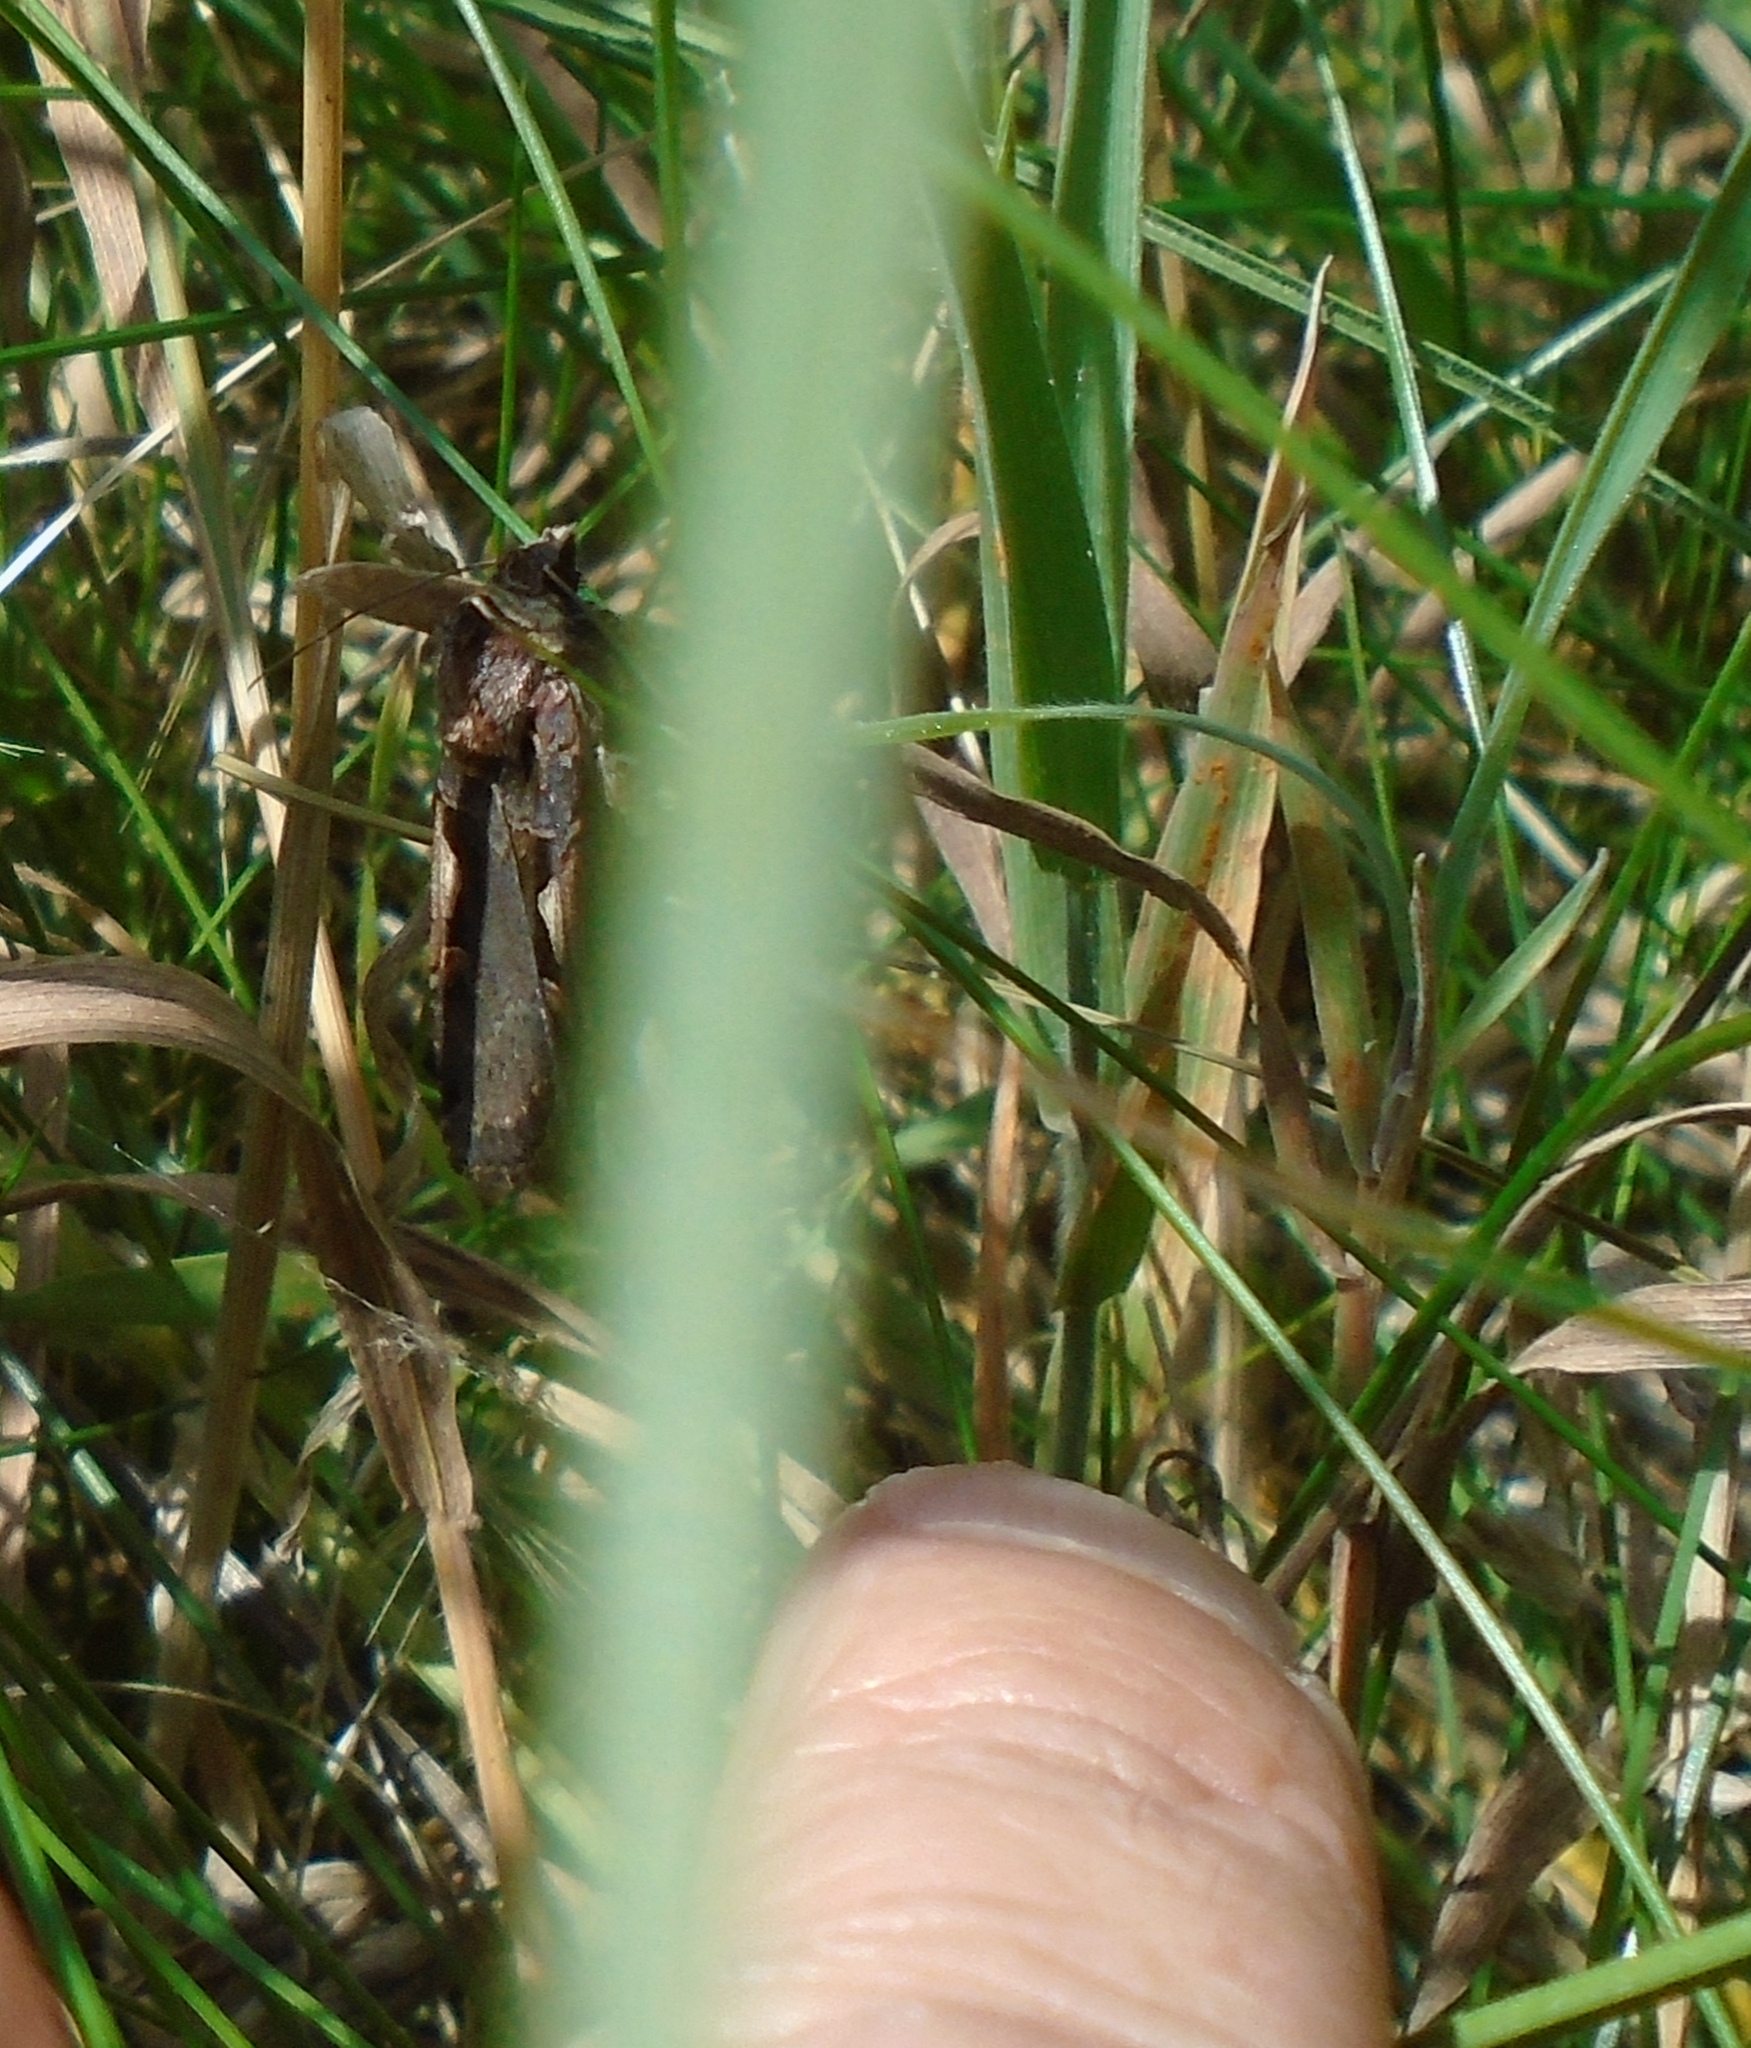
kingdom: Animalia
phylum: Arthropoda
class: Insecta
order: Lepidoptera
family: Noctuidae
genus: Xestia
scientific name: Xestia c-nigrum
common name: Setaceous hebrew character
